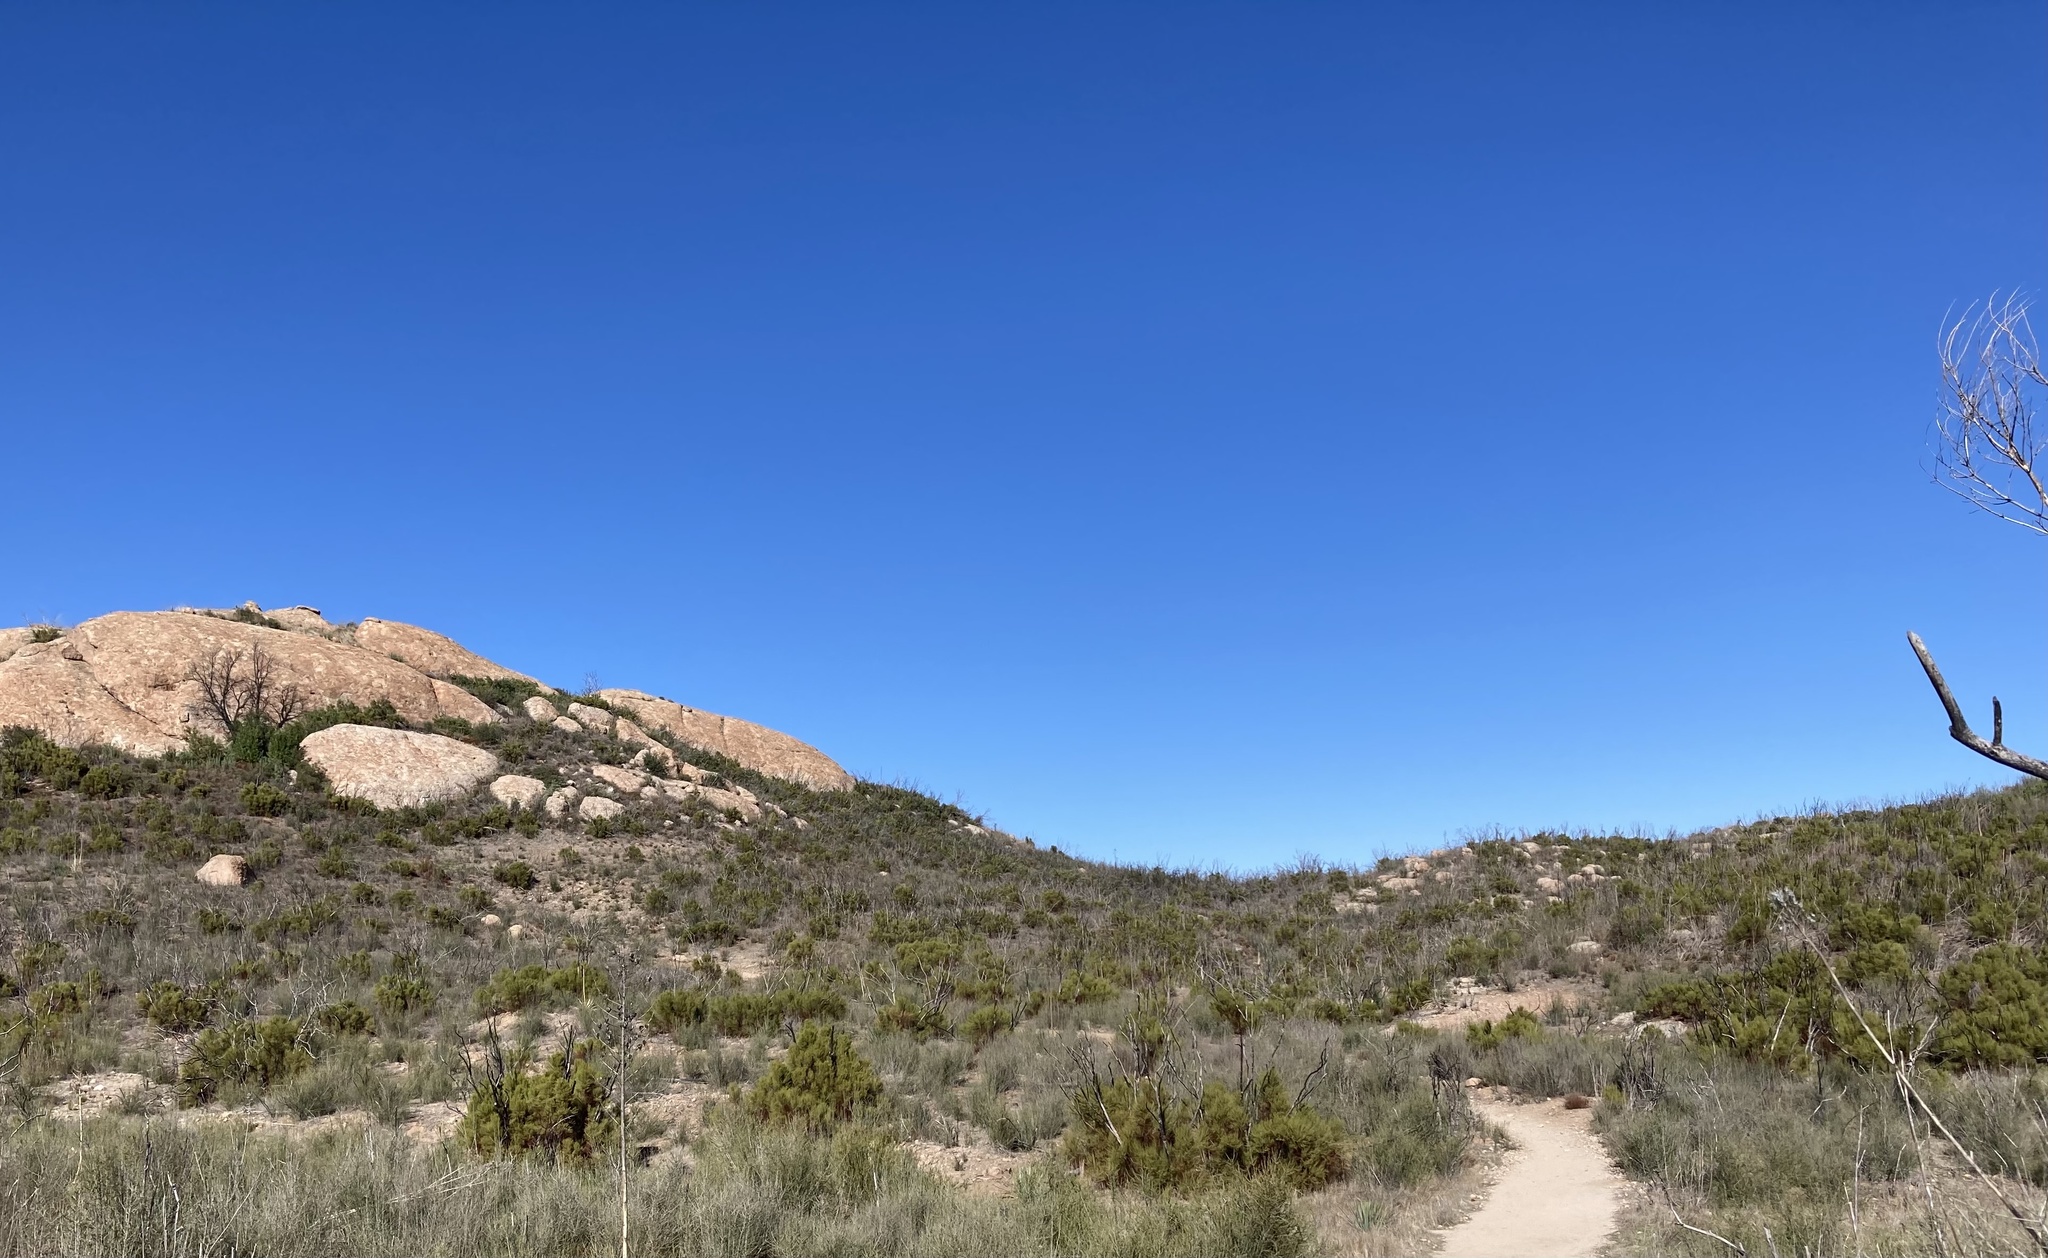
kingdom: Plantae
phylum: Tracheophyta
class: Magnoliopsida
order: Rosales
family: Rosaceae
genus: Adenostoma
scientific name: Adenostoma sparsifolium
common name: Red shank
